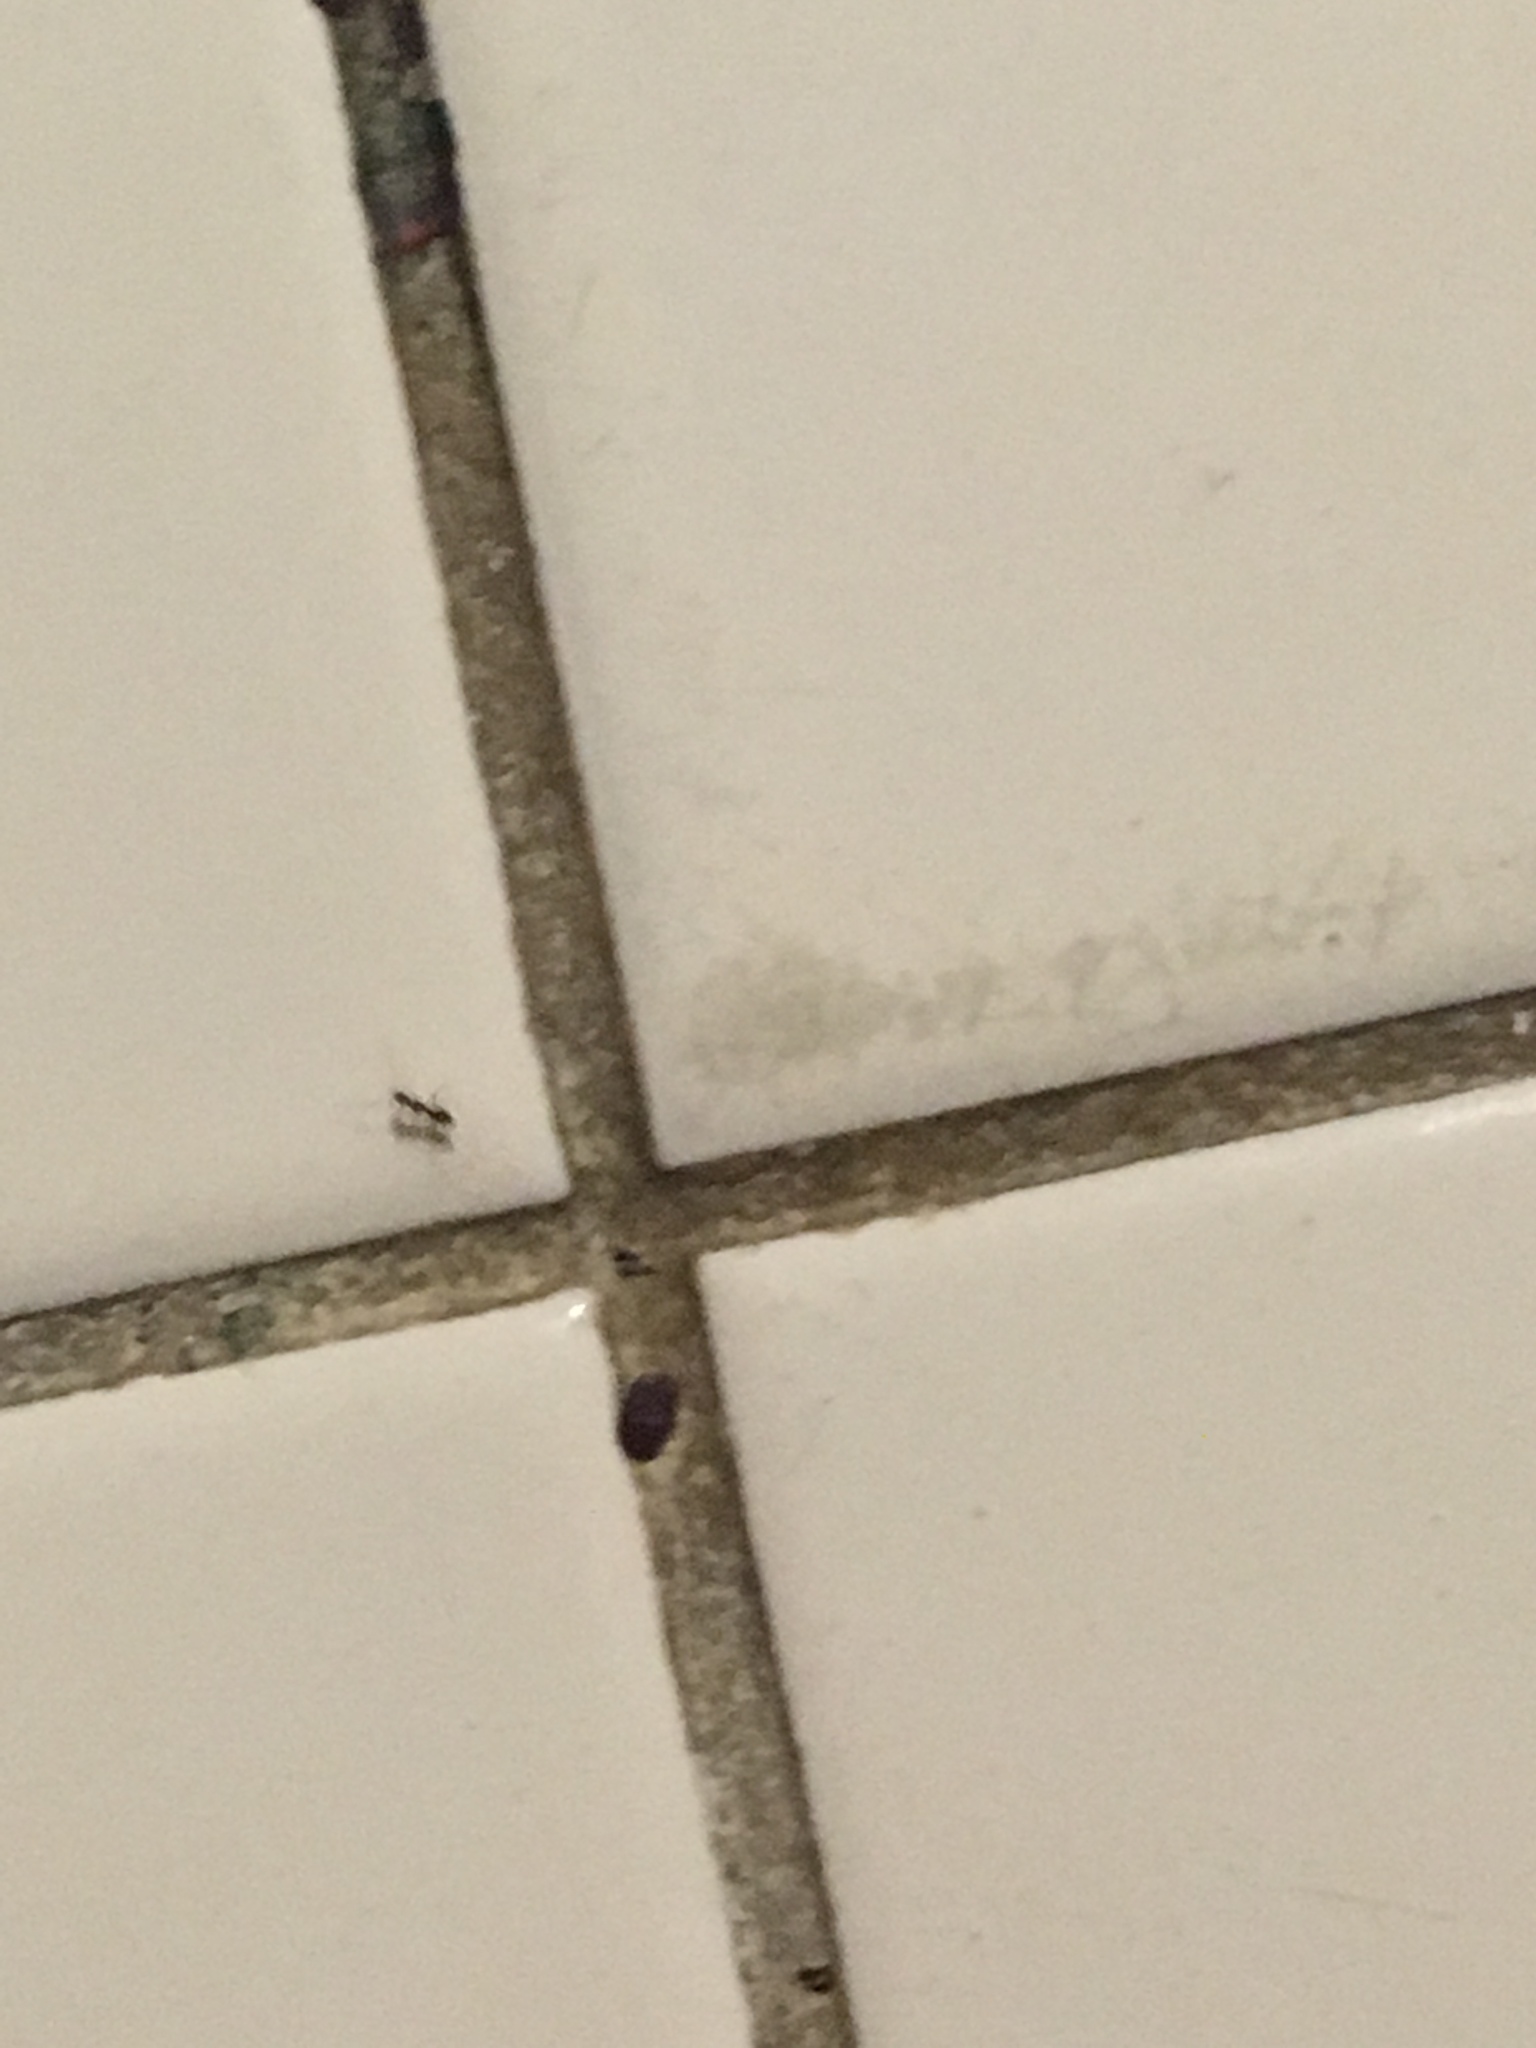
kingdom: Animalia
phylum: Arthropoda
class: Insecta
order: Hymenoptera
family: Formicidae
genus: Paratrechina
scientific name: Paratrechina longicornis
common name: Longhorned crazy ant
